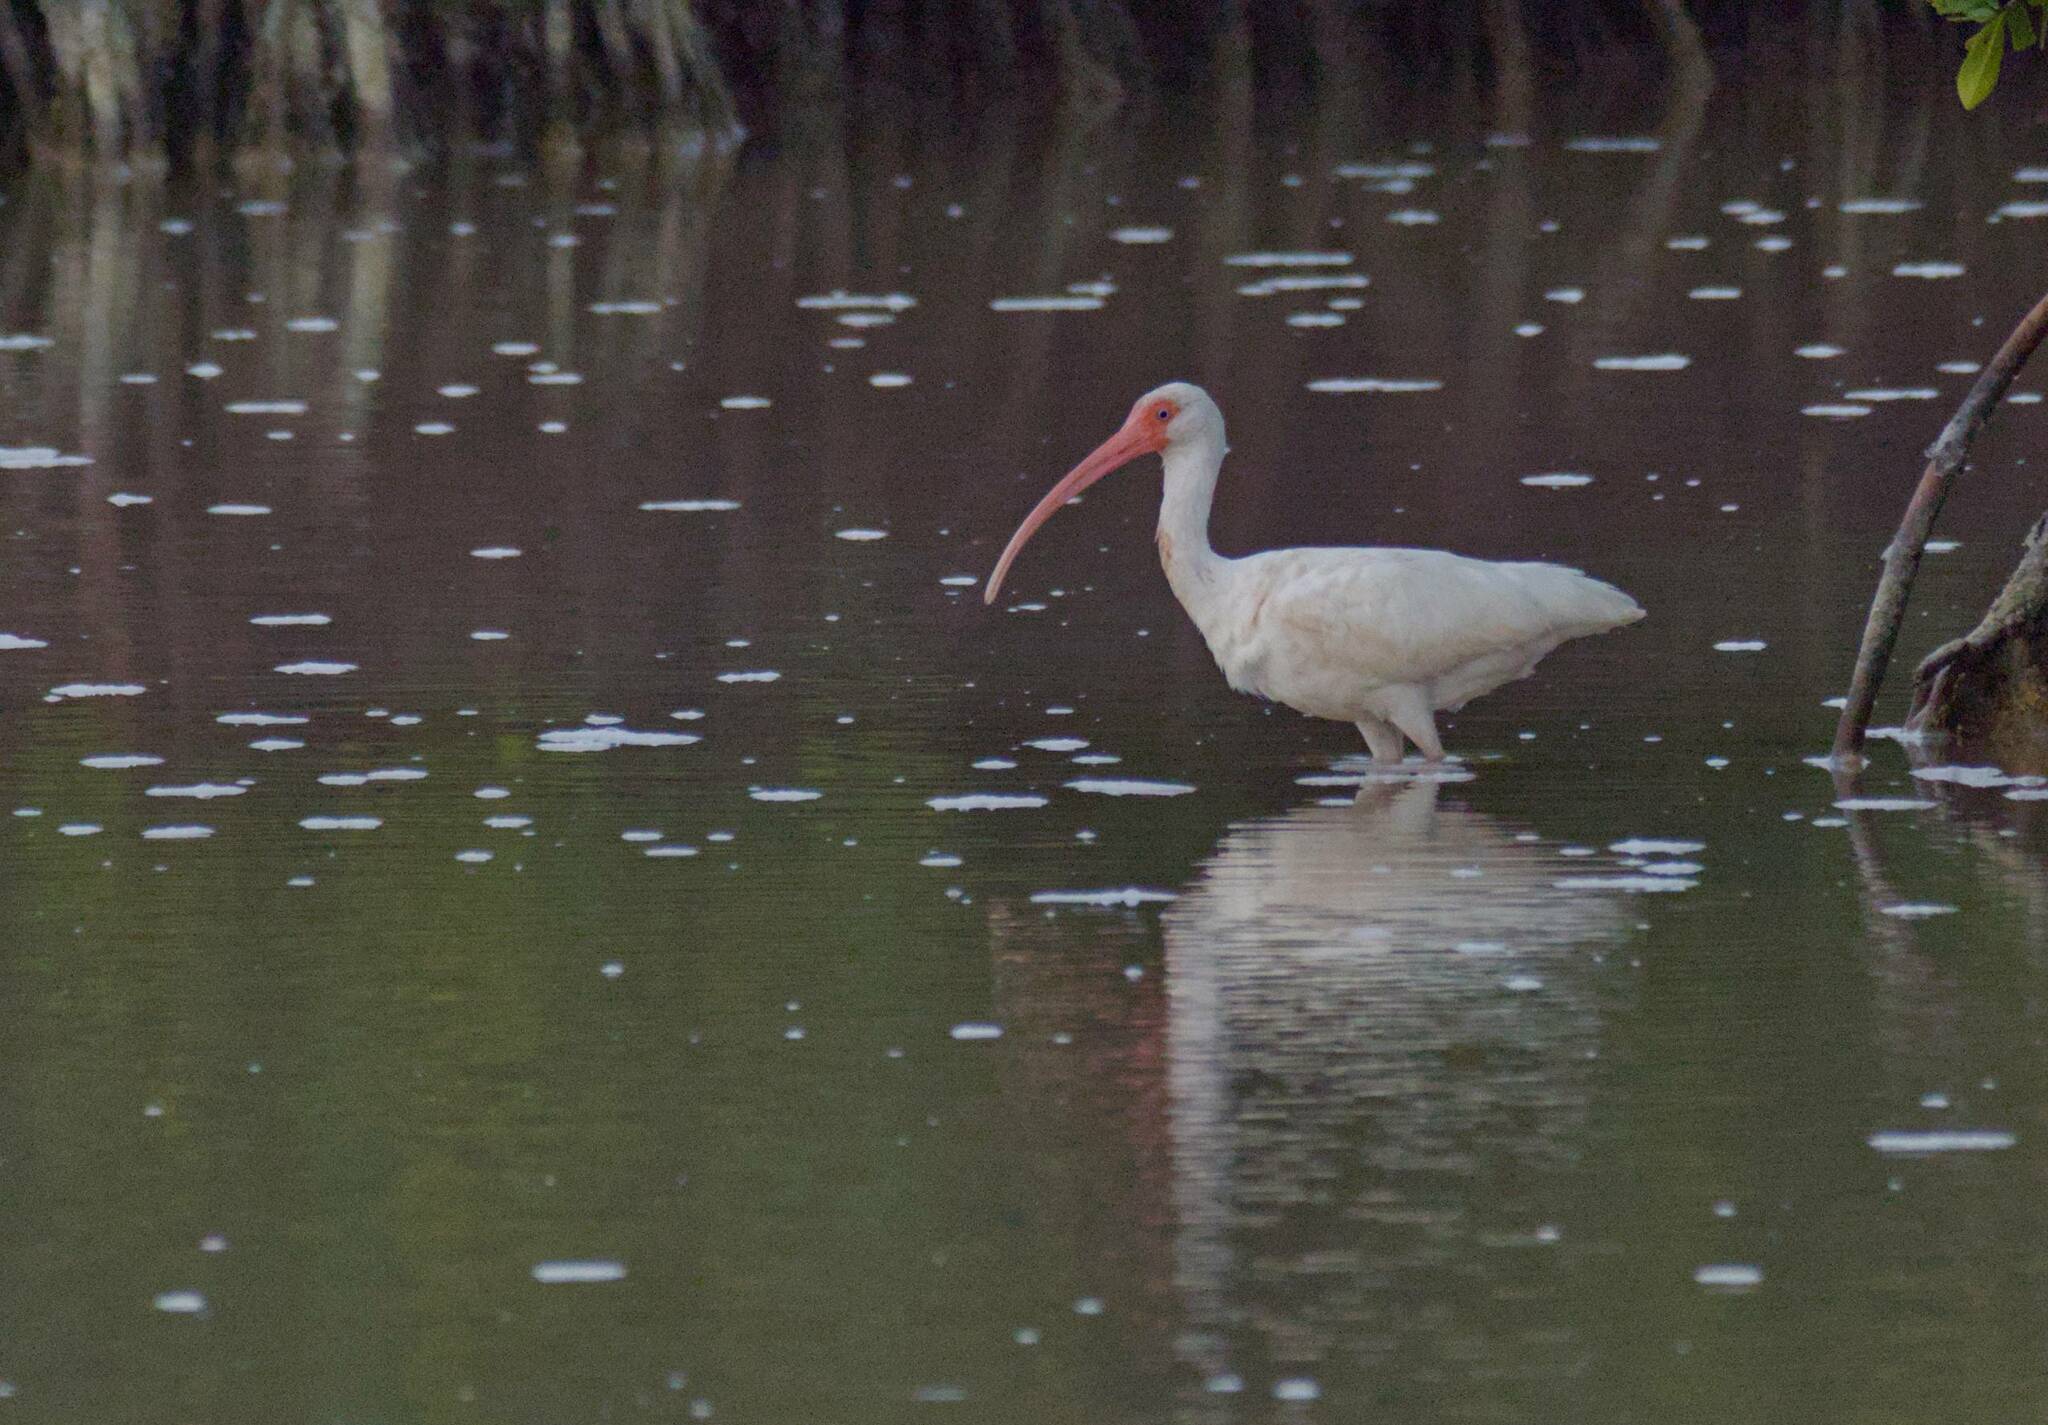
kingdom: Animalia
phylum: Chordata
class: Aves
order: Pelecaniformes
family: Threskiornithidae
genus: Eudocimus
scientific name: Eudocimus albus
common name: White ibis
